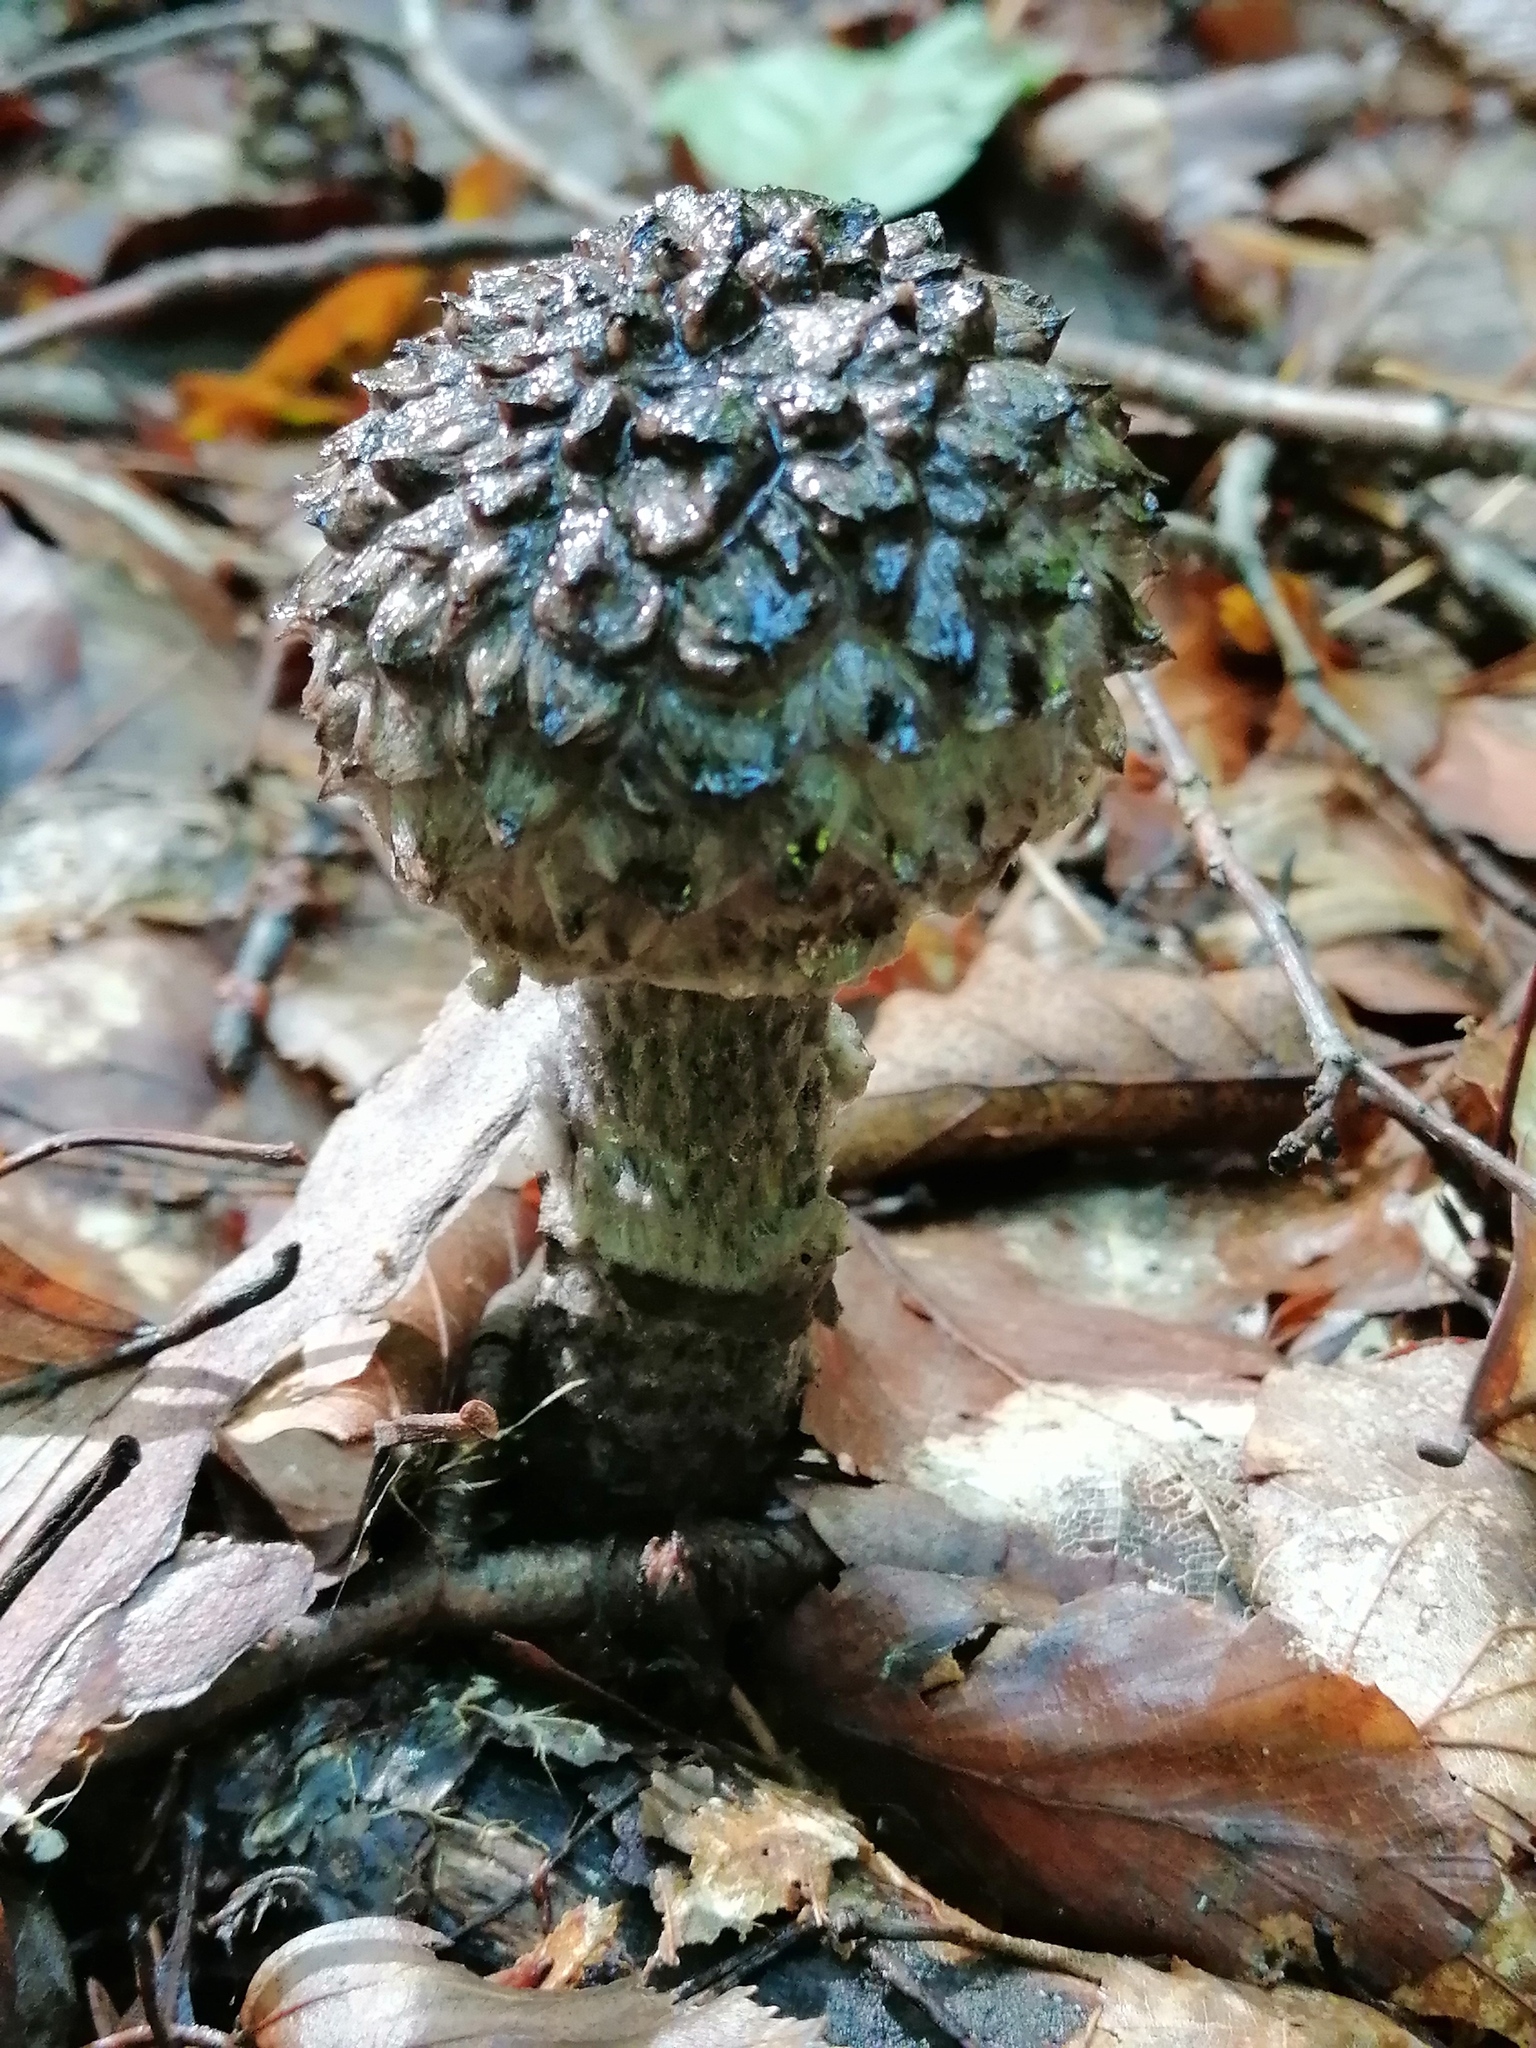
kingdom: Fungi
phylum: Basidiomycota
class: Agaricomycetes
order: Boletales
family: Boletaceae
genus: Strobilomyces
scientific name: Strobilomyces strobilaceus
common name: Old man of the woods
